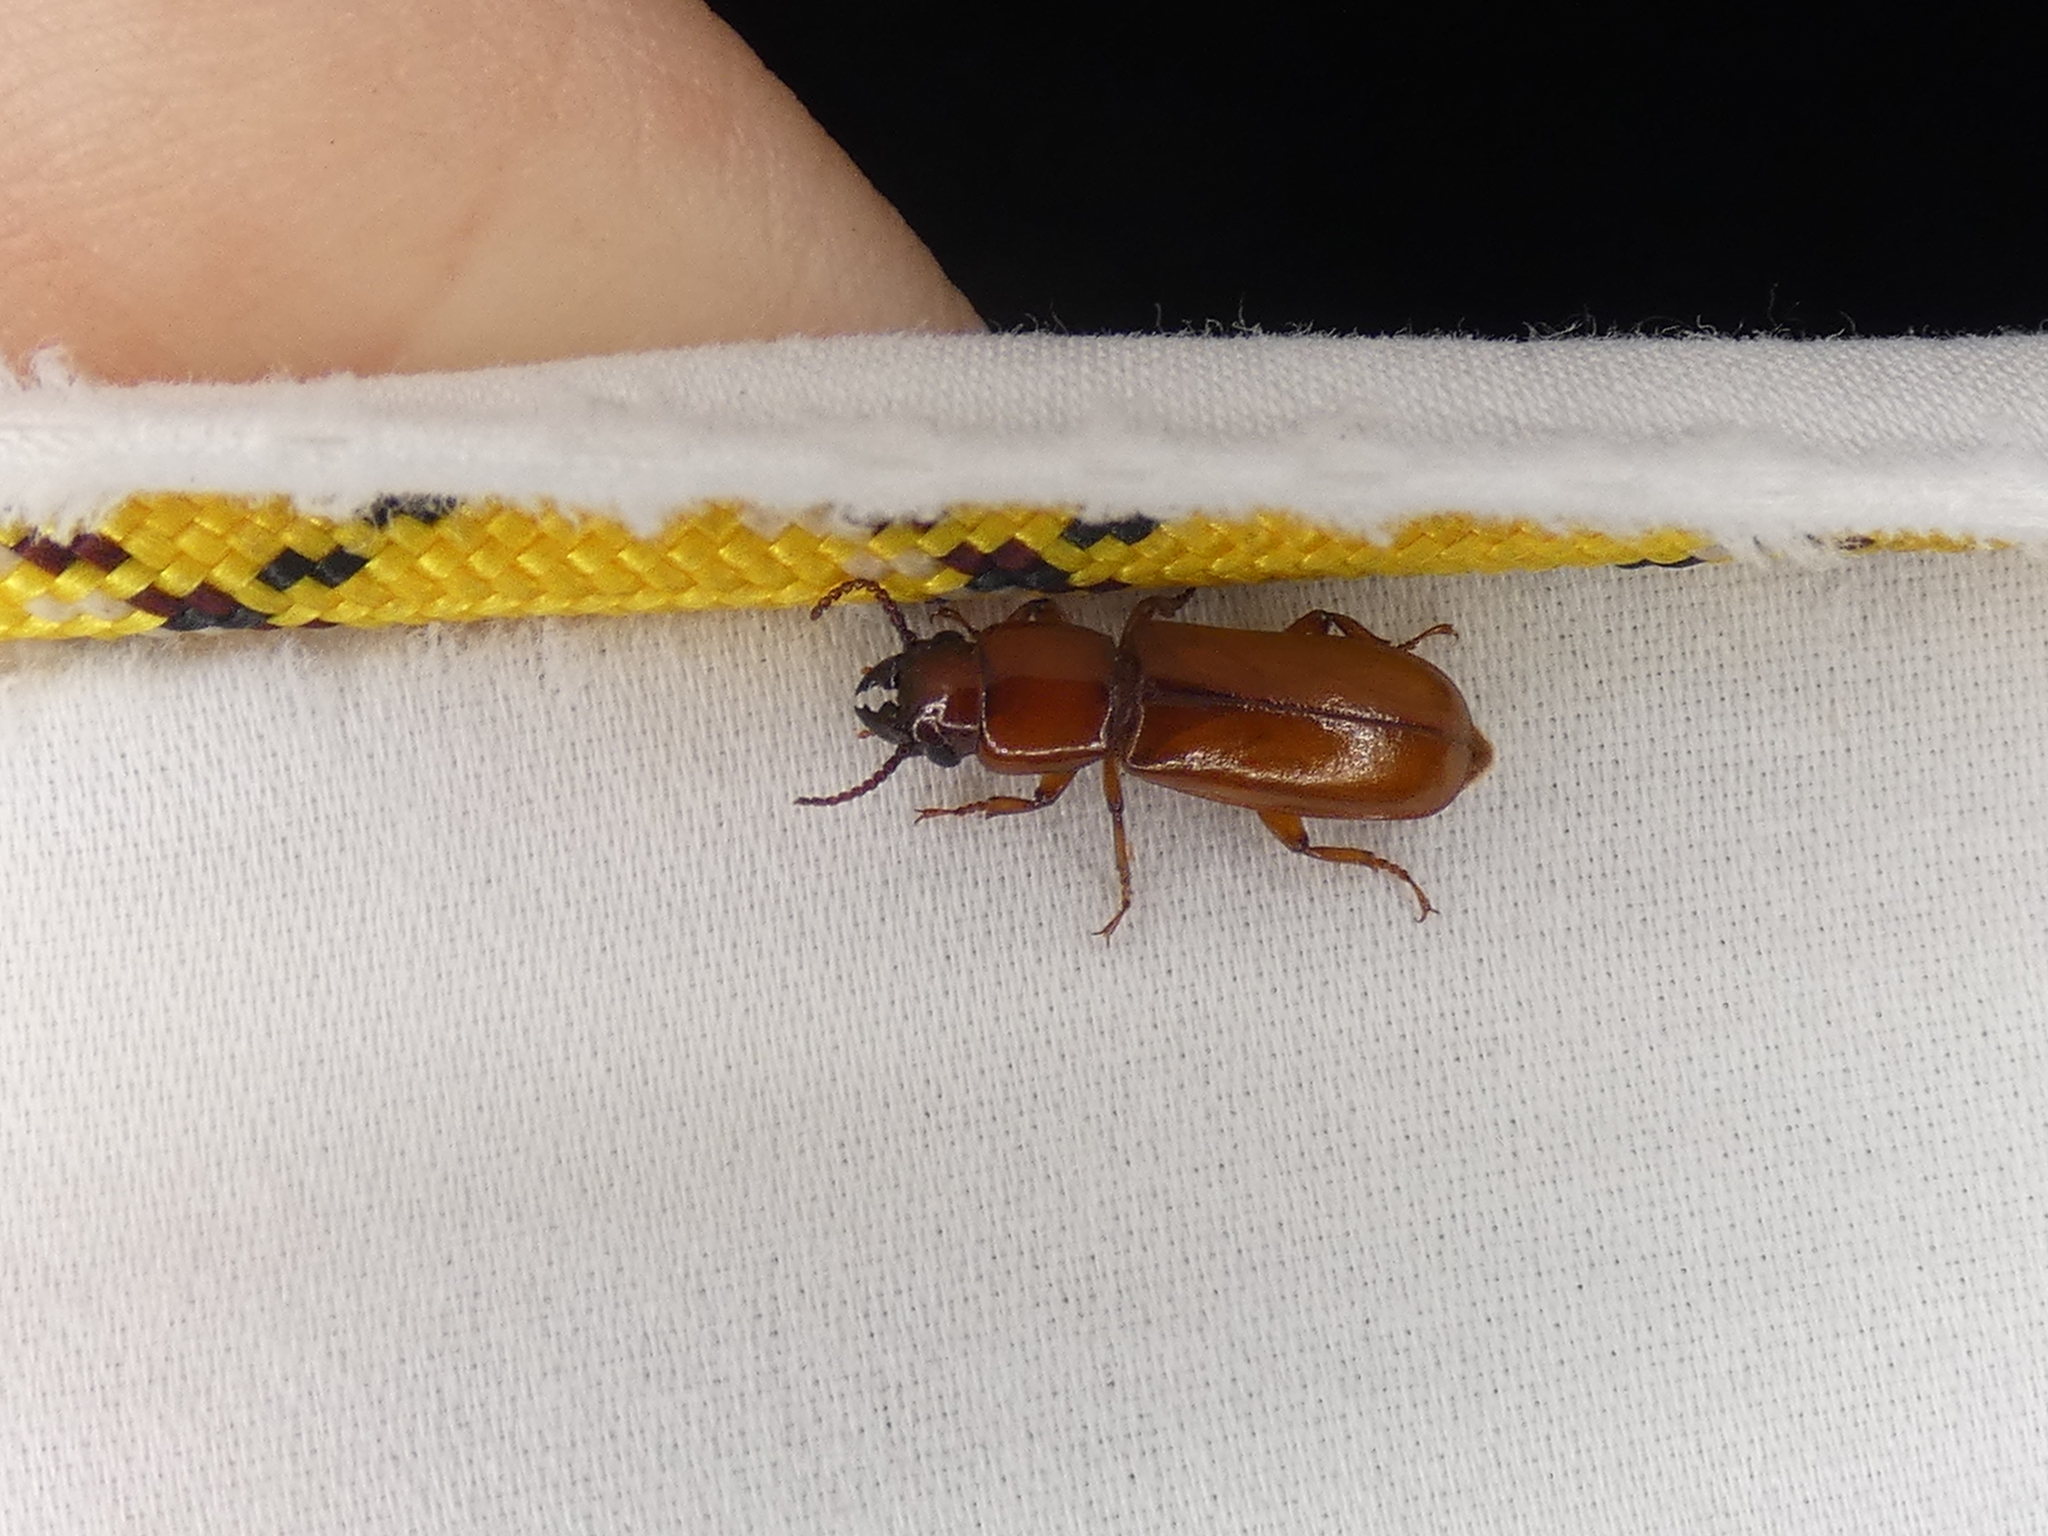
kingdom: Animalia
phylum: Arthropoda
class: Insecta
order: Coleoptera
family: Cerambycidae
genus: Parandra
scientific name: Parandra polita
